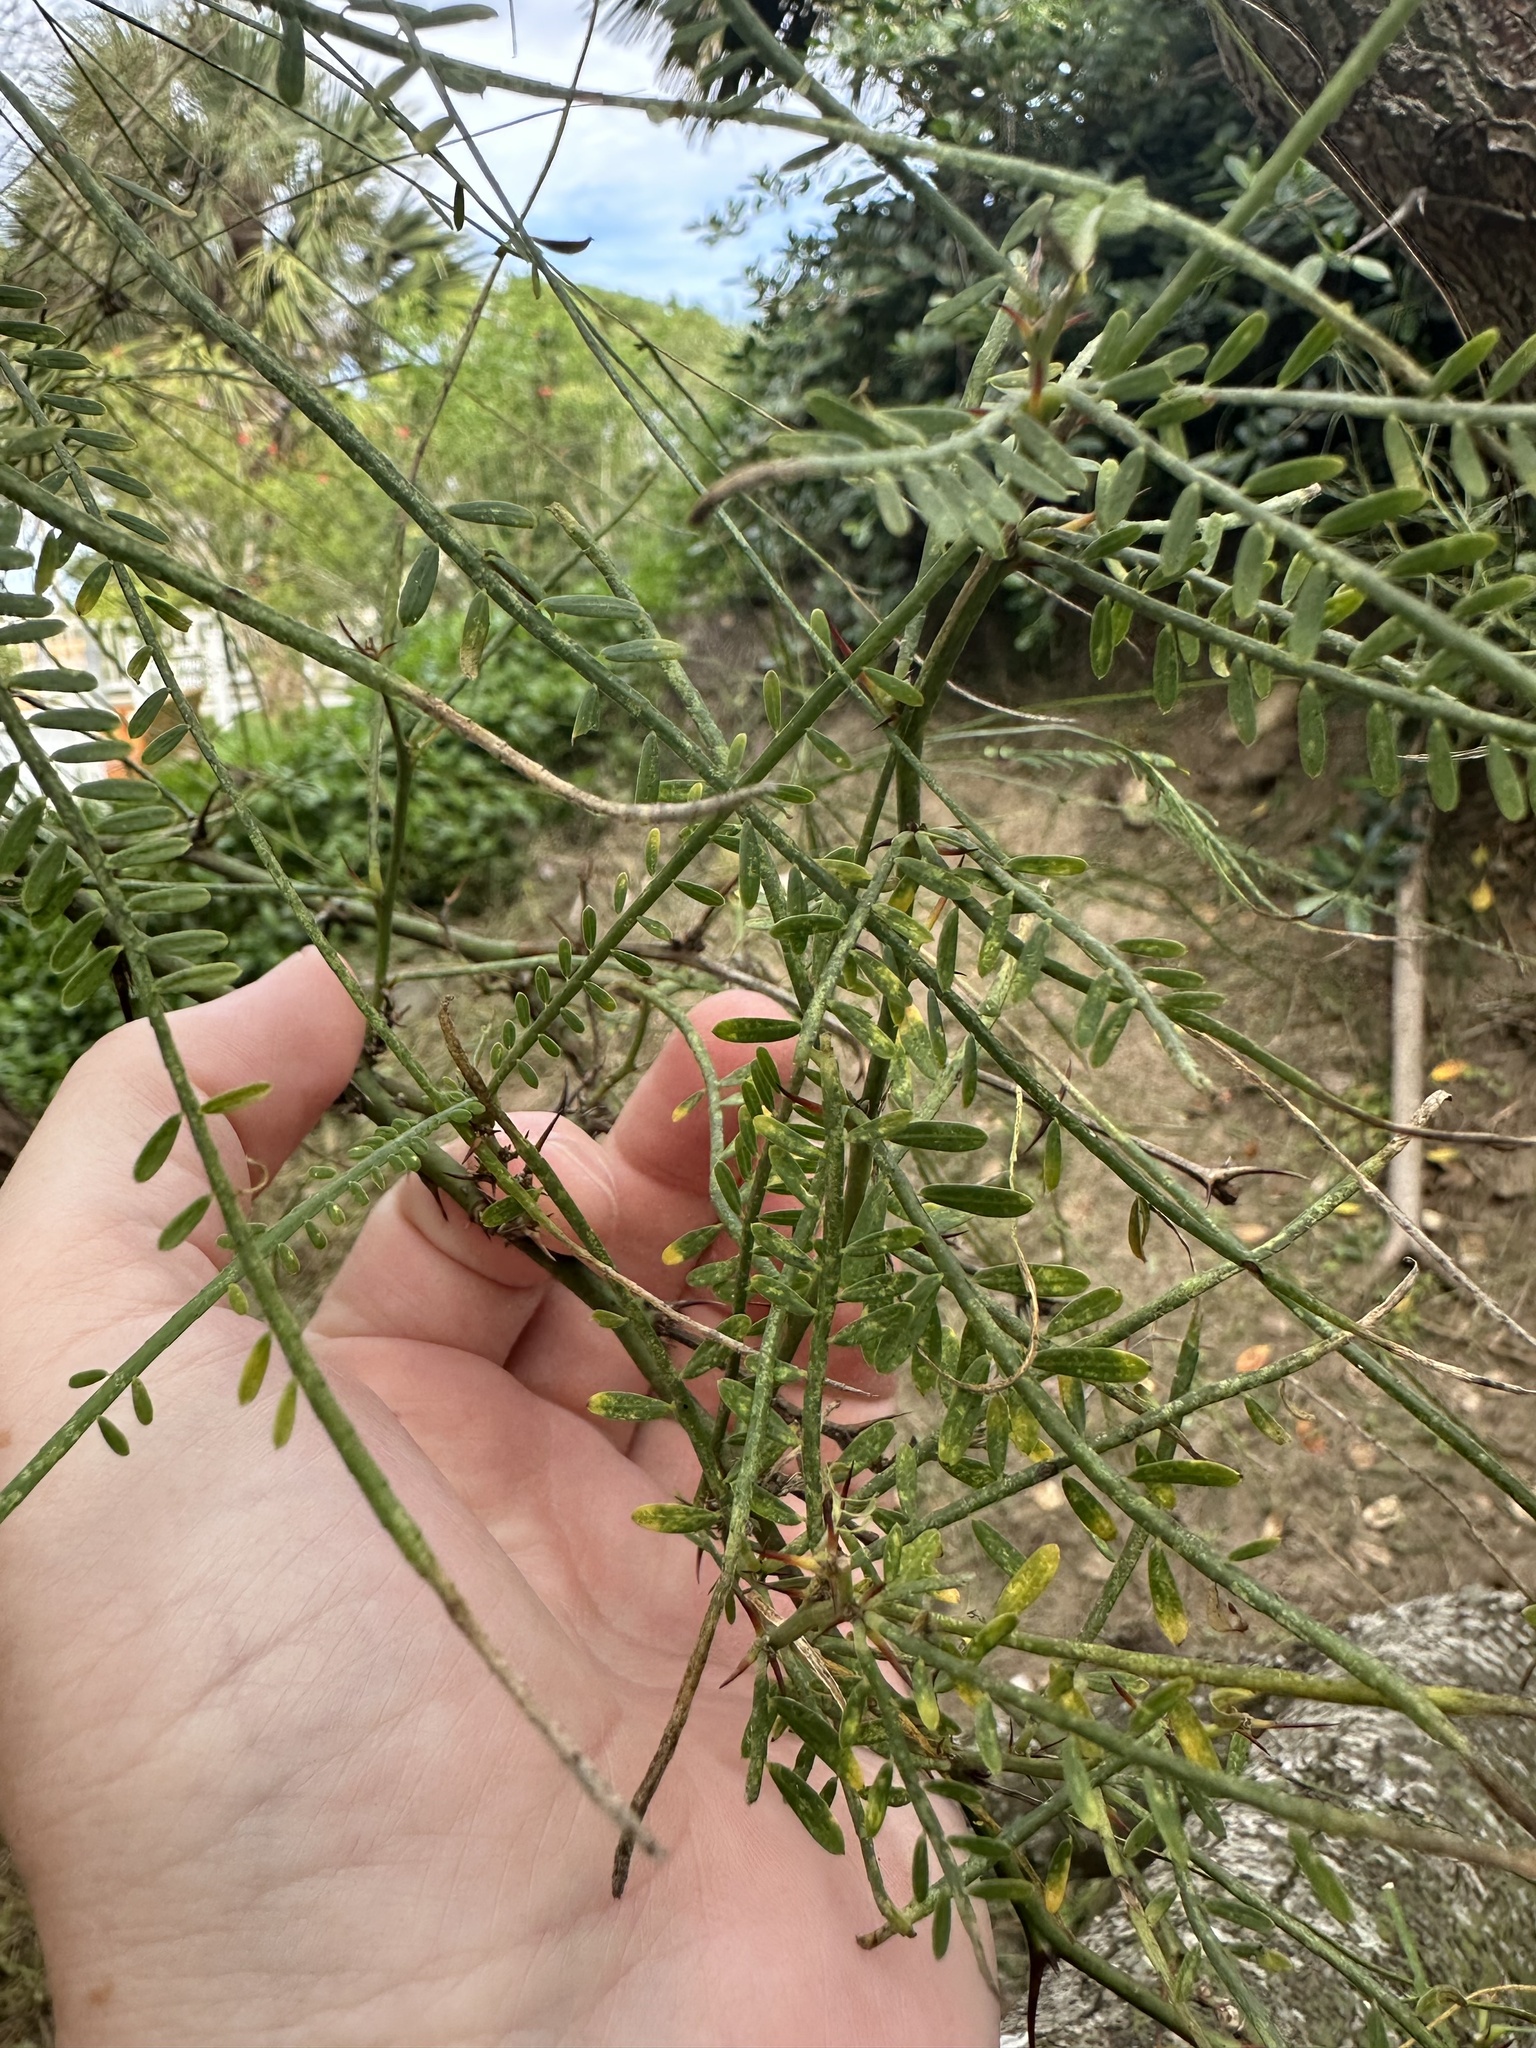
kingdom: Plantae
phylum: Tracheophyta
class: Magnoliopsida
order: Fabales
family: Fabaceae
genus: Parkinsonia
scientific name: Parkinsonia aculeata
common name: Jerusalem thorn
